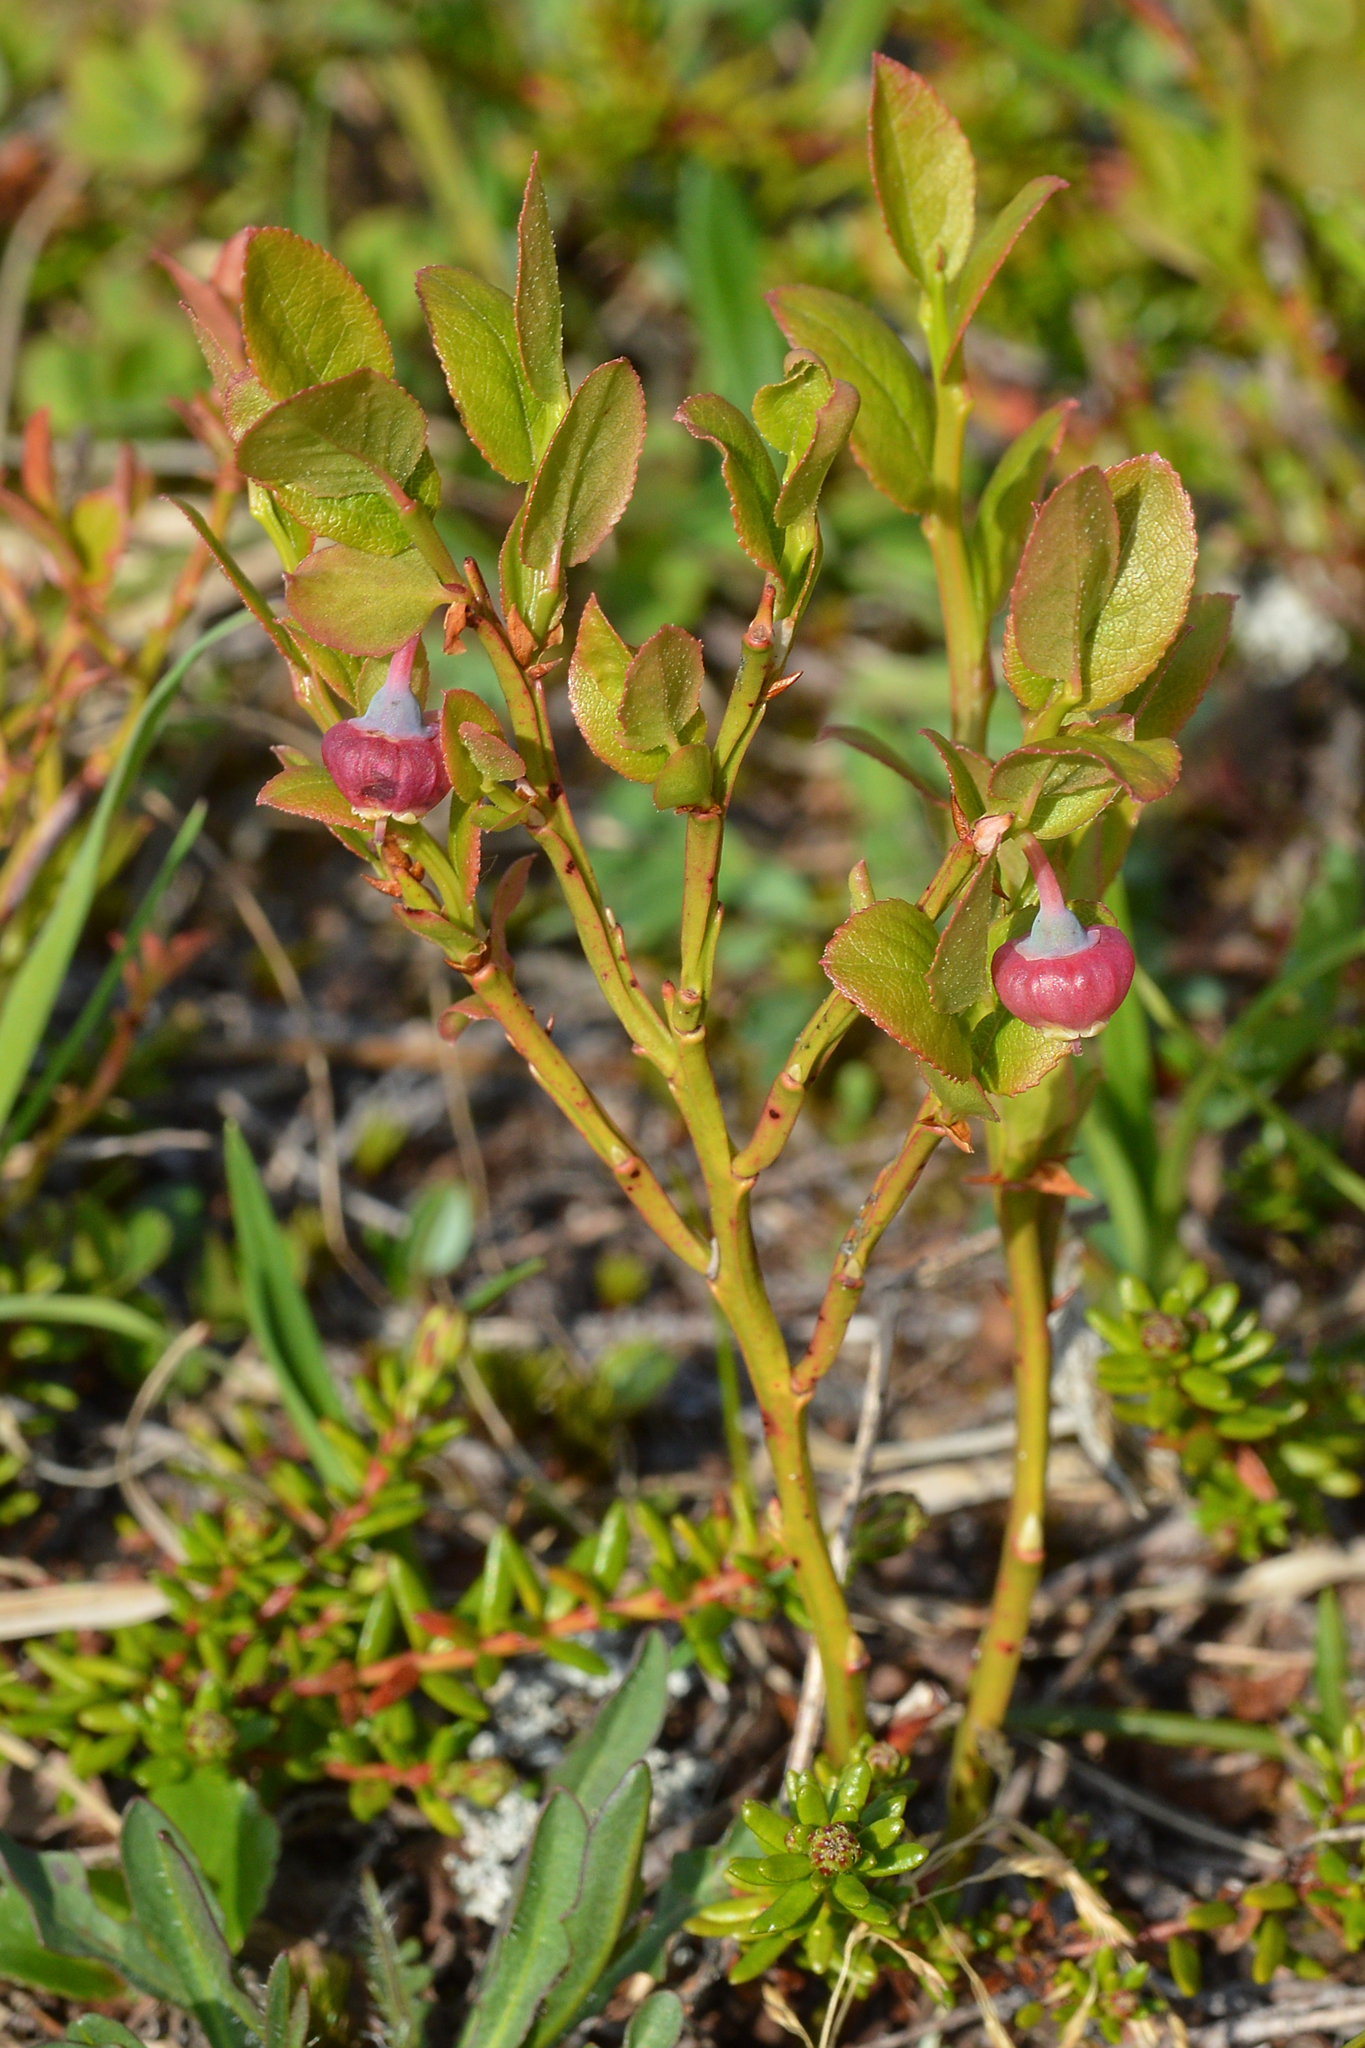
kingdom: Plantae
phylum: Tracheophyta
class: Magnoliopsida
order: Ericales
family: Ericaceae
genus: Vaccinium
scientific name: Vaccinium myrtillus
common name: Bilberry
